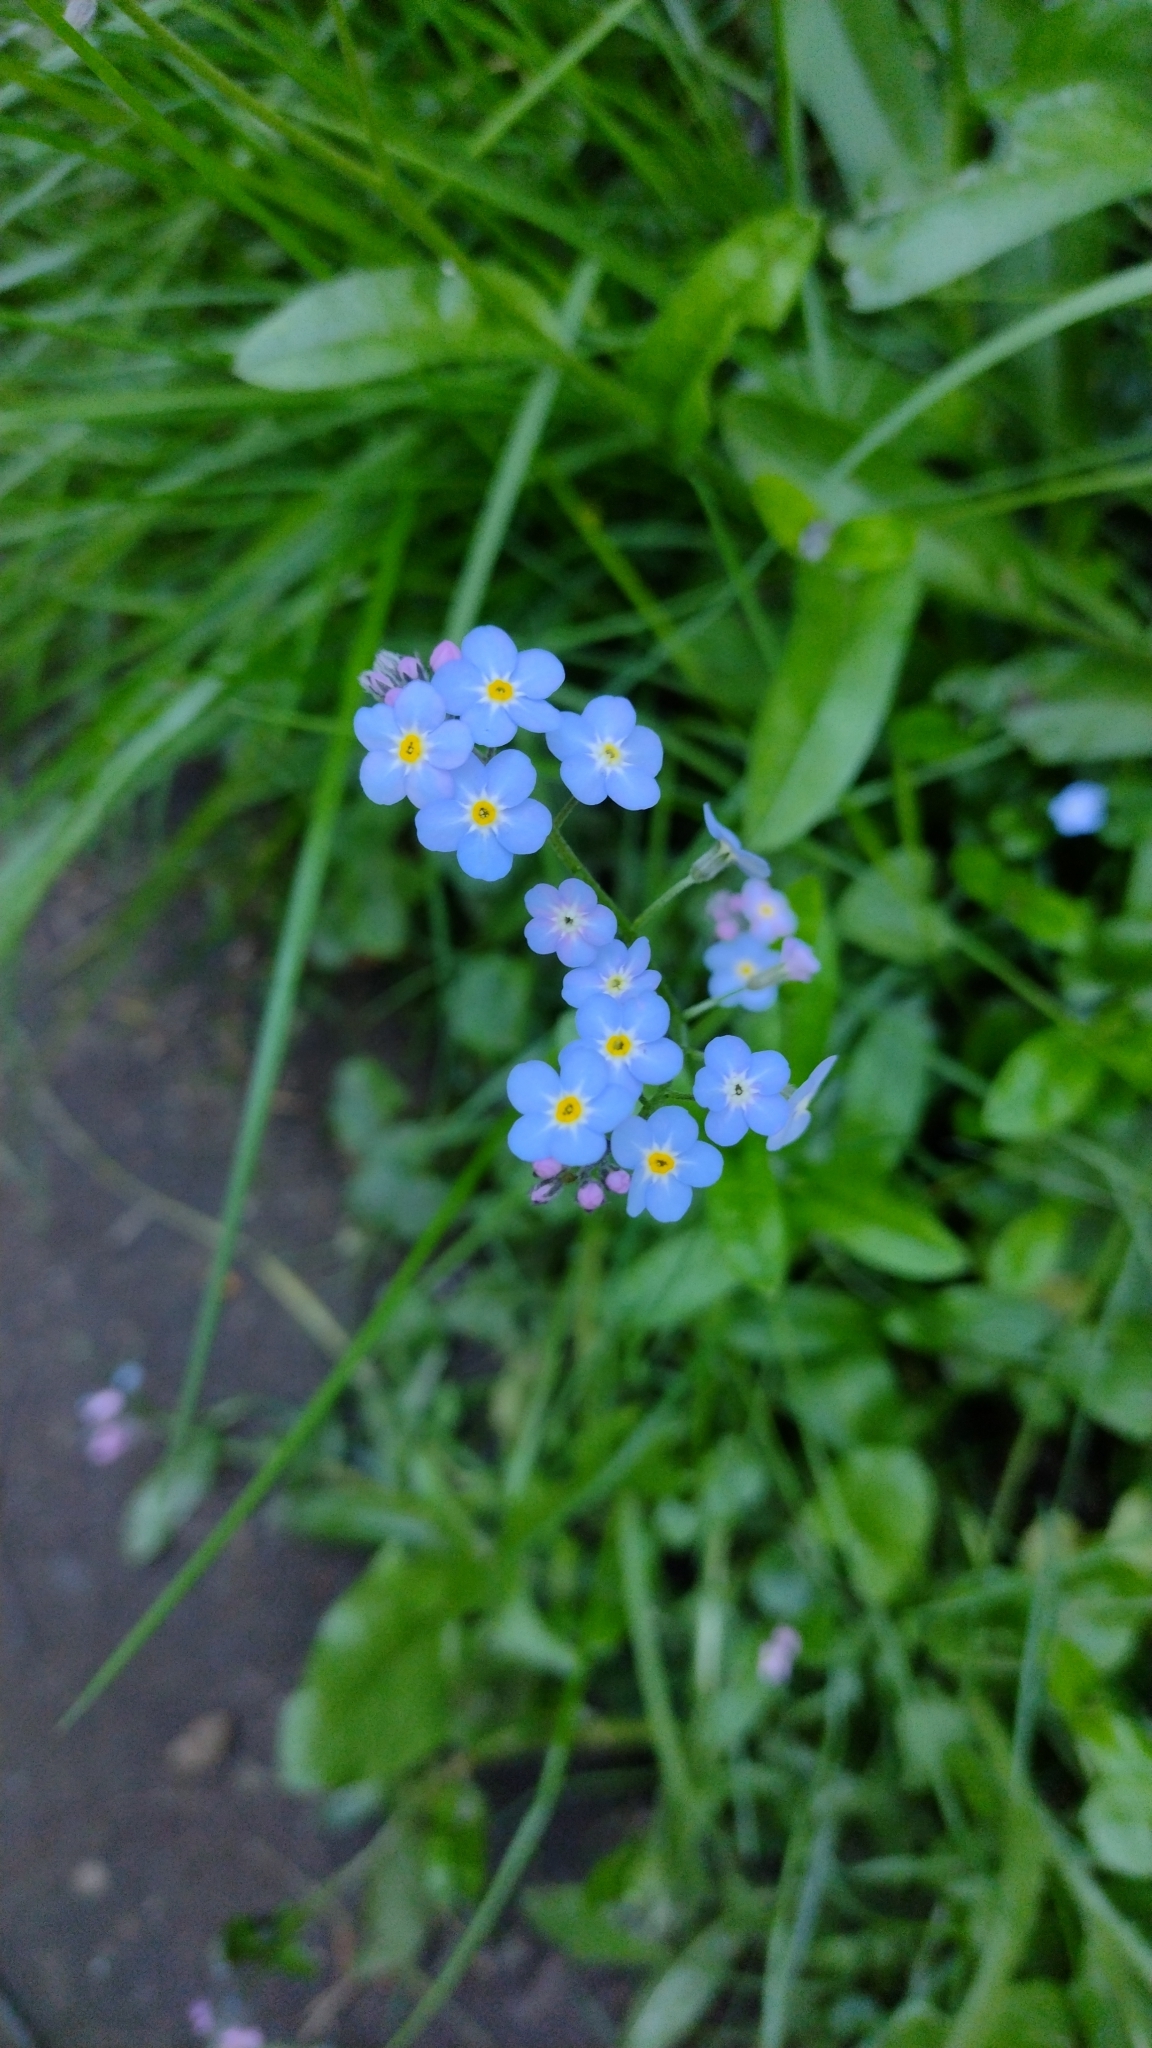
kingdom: Plantae
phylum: Tracheophyta
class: Magnoliopsida
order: Boraginales
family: Boraginaceae
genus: Myosotis
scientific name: Myosotis sylvatica
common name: Wood forget-me-not
